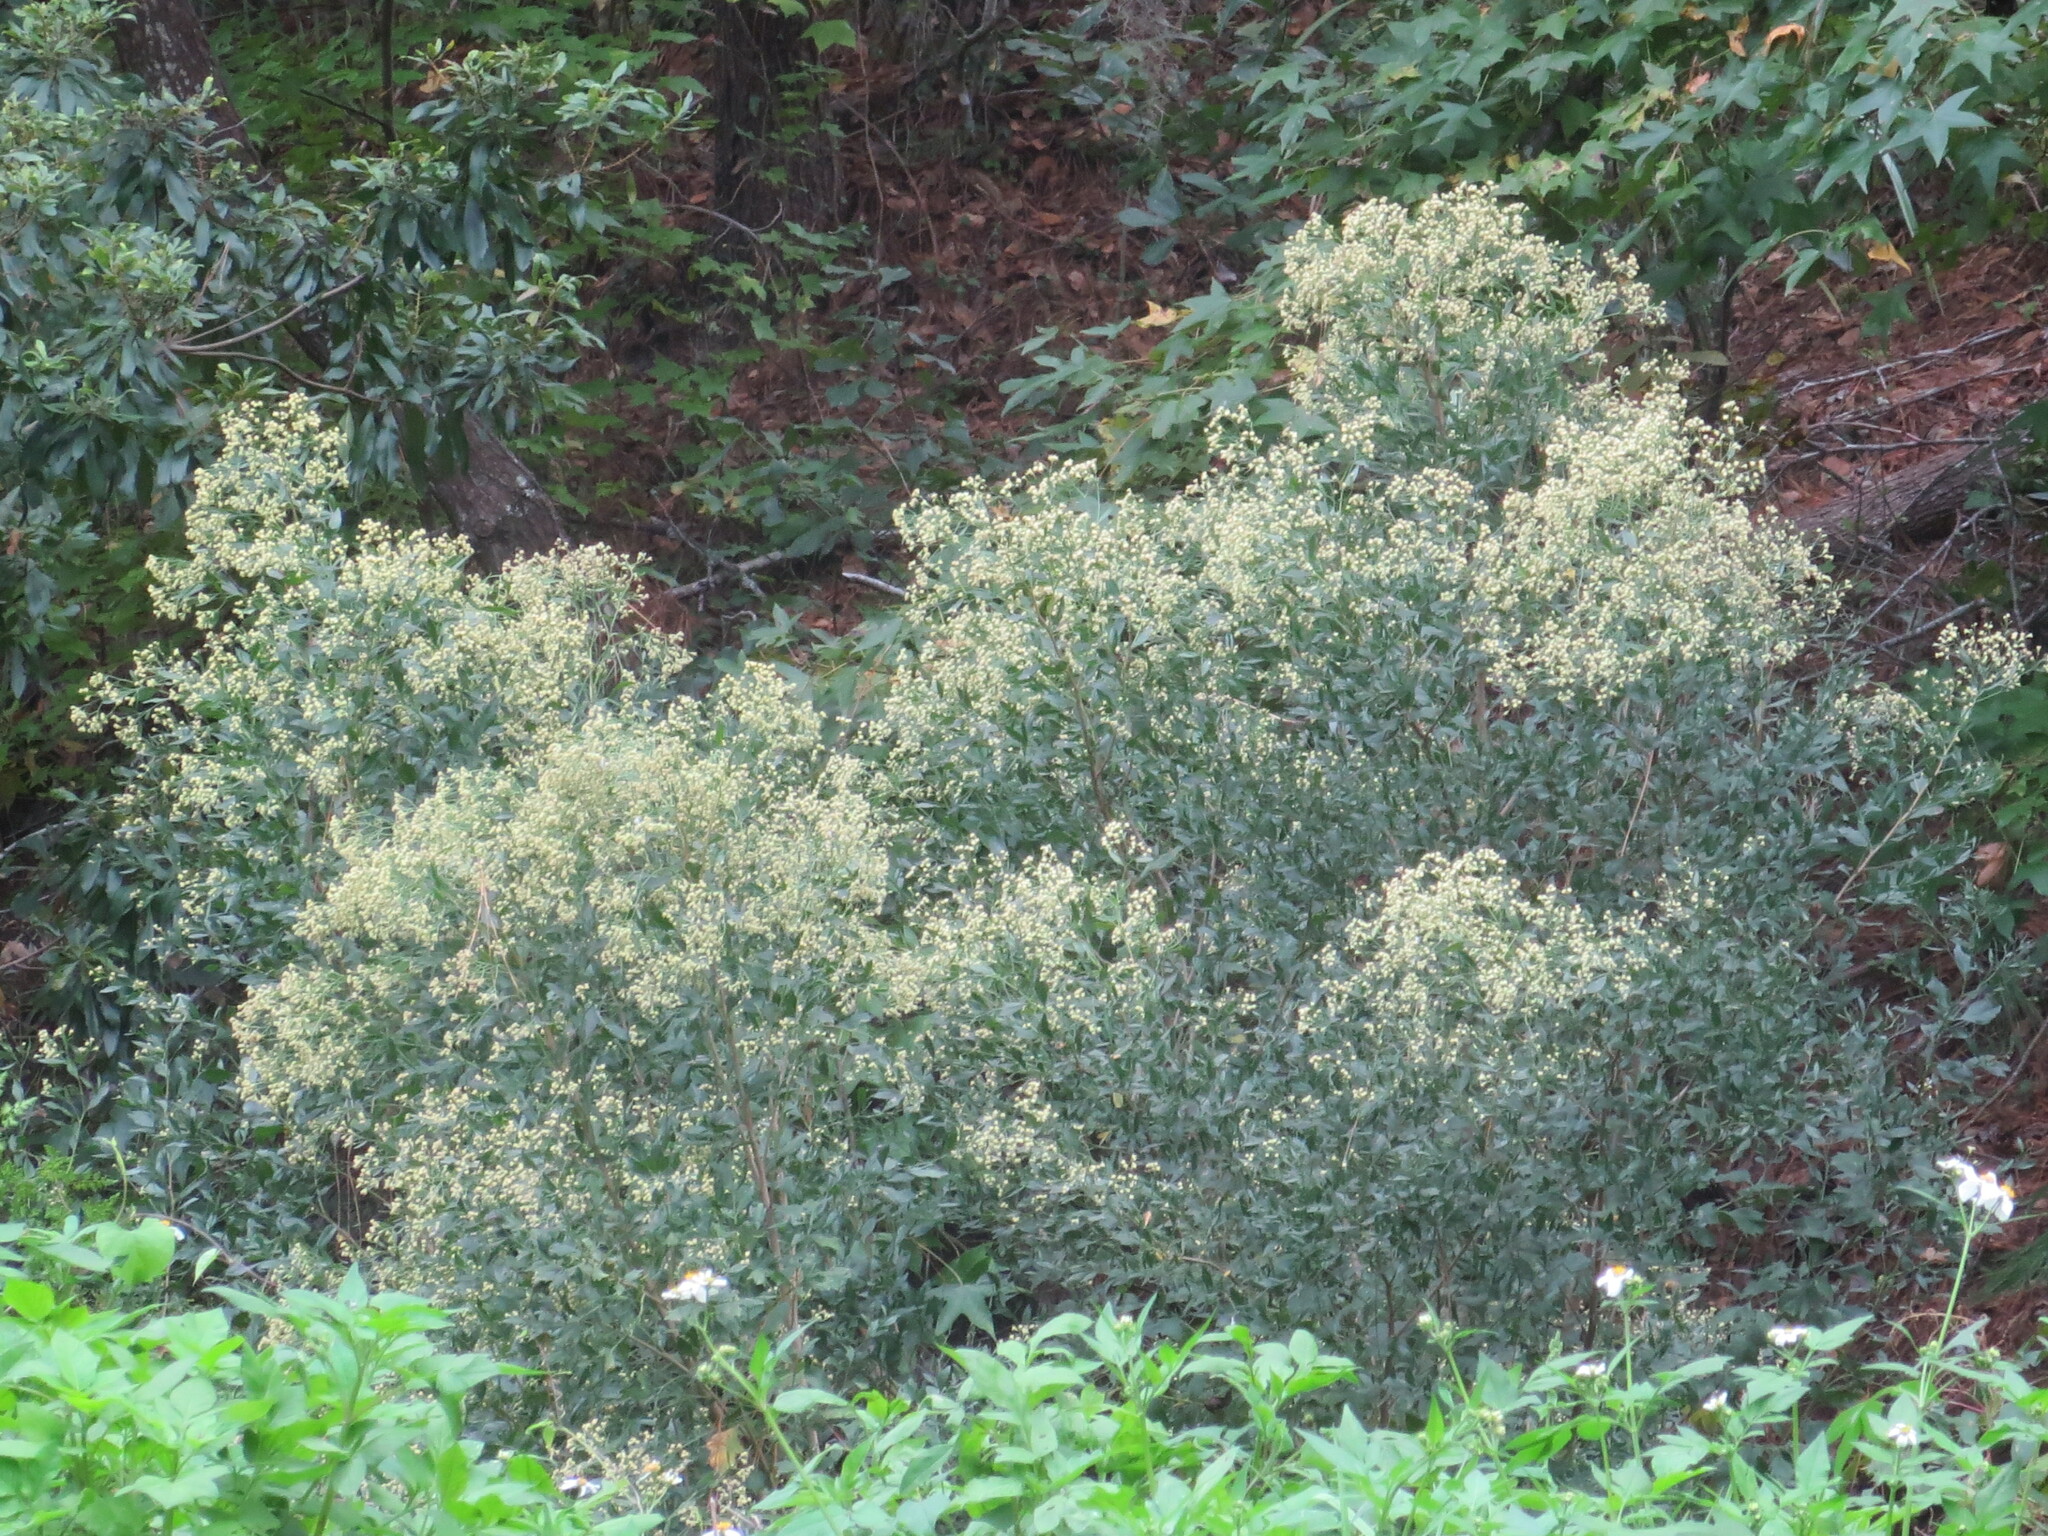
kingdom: Plantae
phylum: Tracheophyta
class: Magnoliopsida
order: Asterales
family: Asteraceae
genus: Baccharis
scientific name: Baccharis halimifolia
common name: Eastern baccharis
